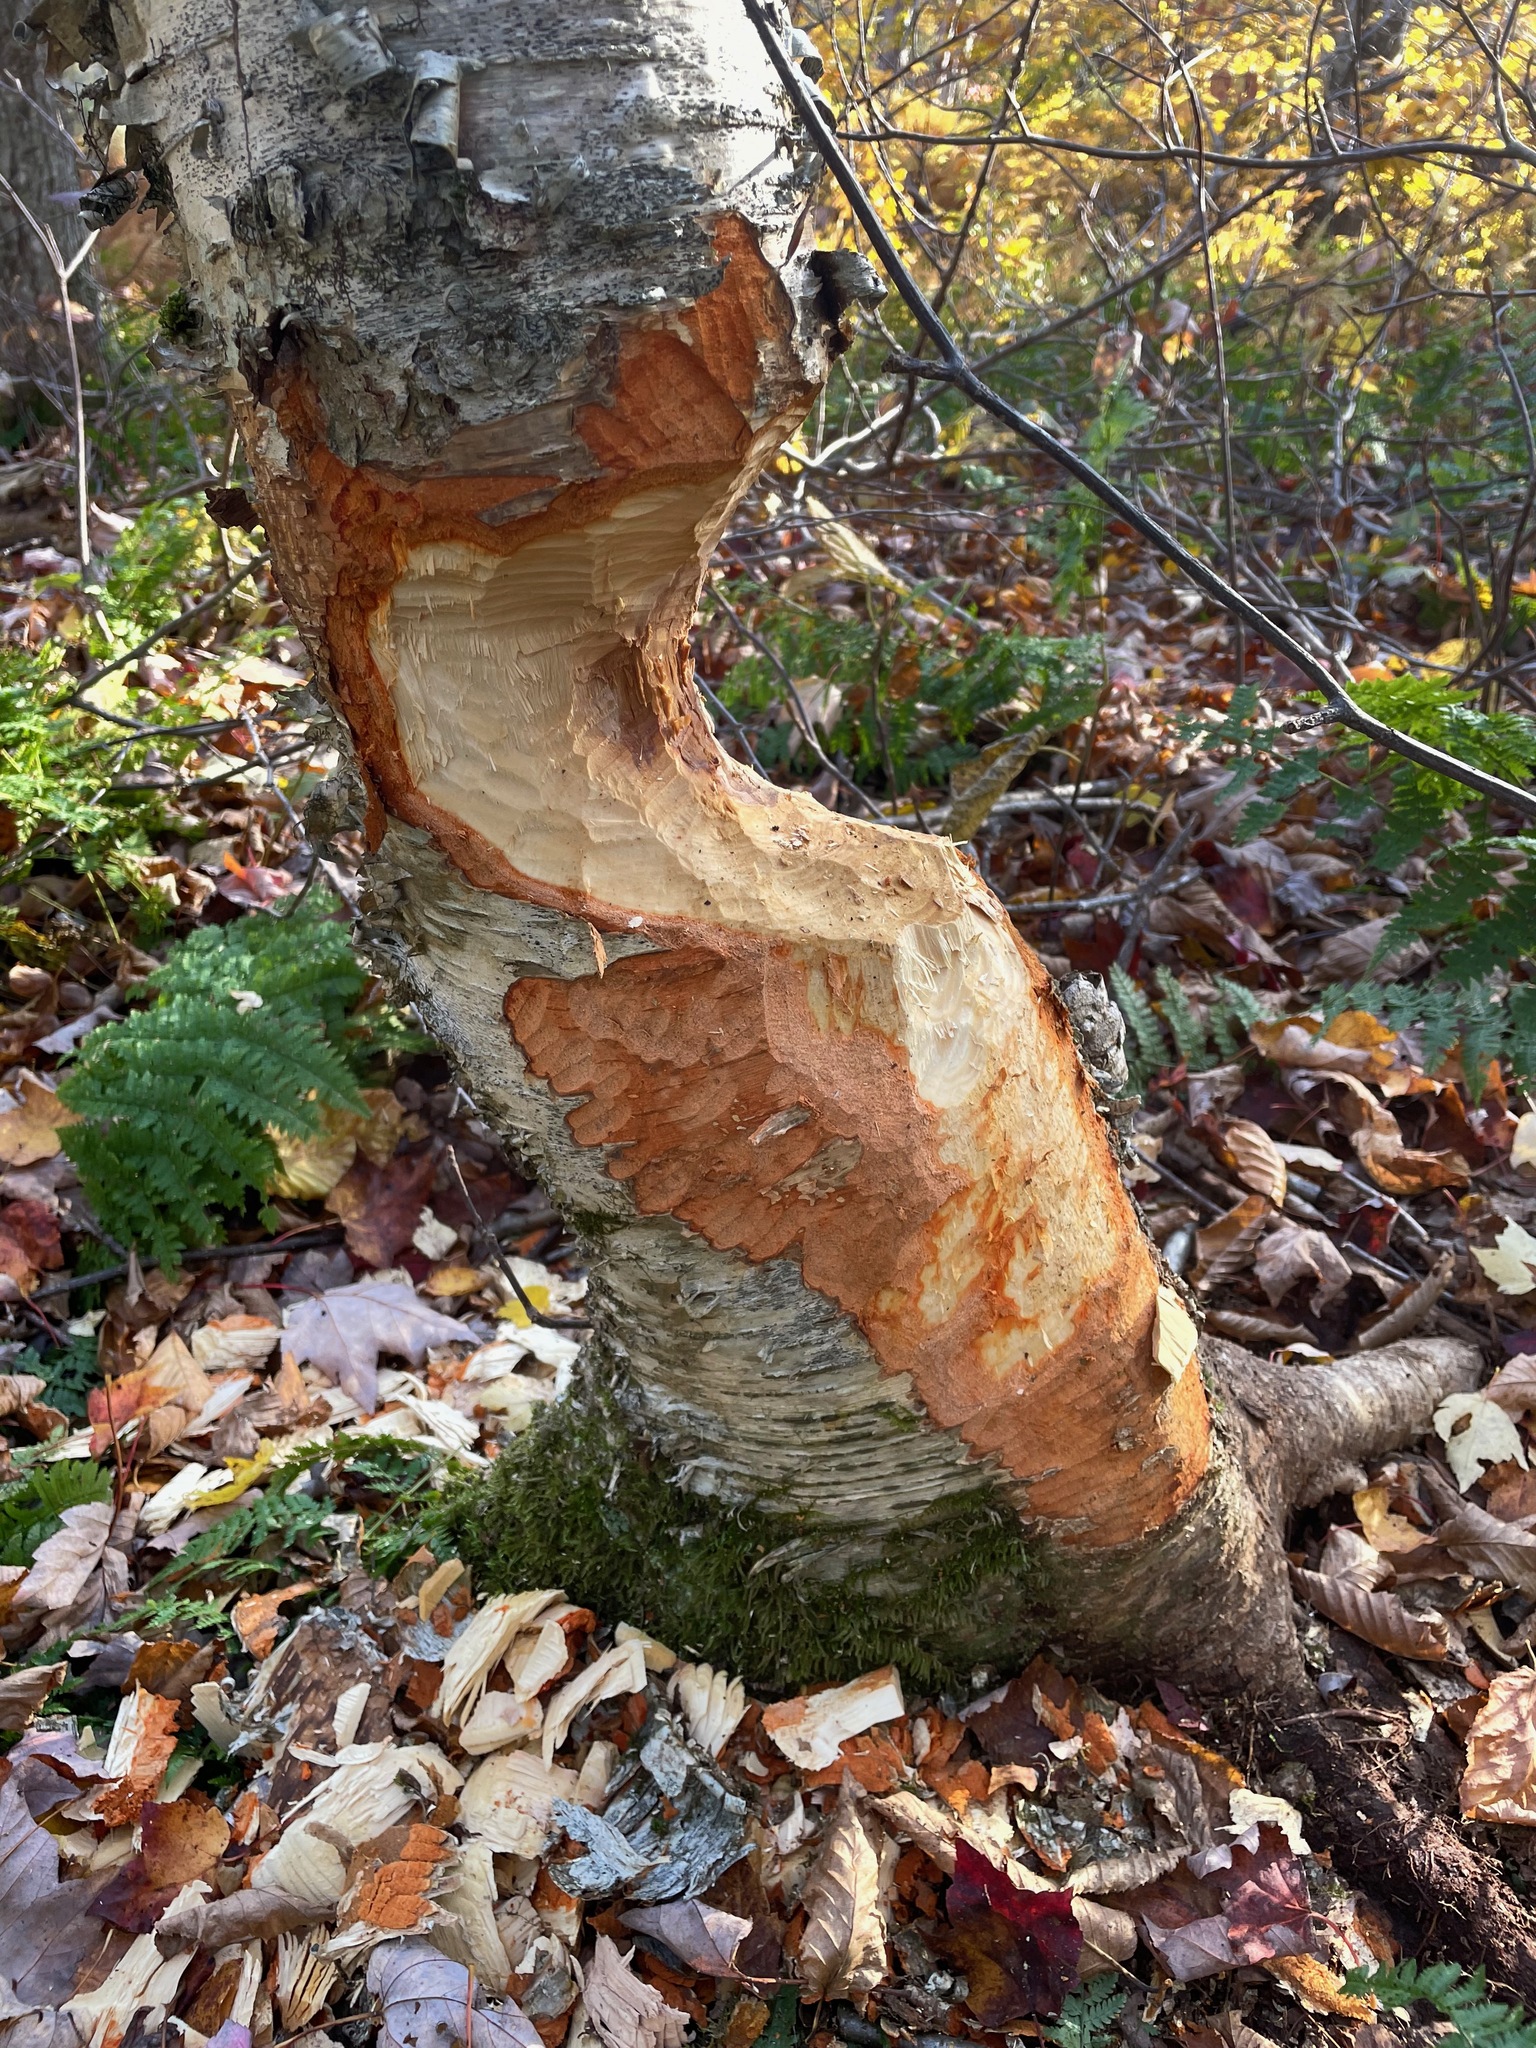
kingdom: Animalia
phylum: Chordata
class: Mammalia
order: Rodentia
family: Castoridae
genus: Castor
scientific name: Castor canadensis
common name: American beaver
